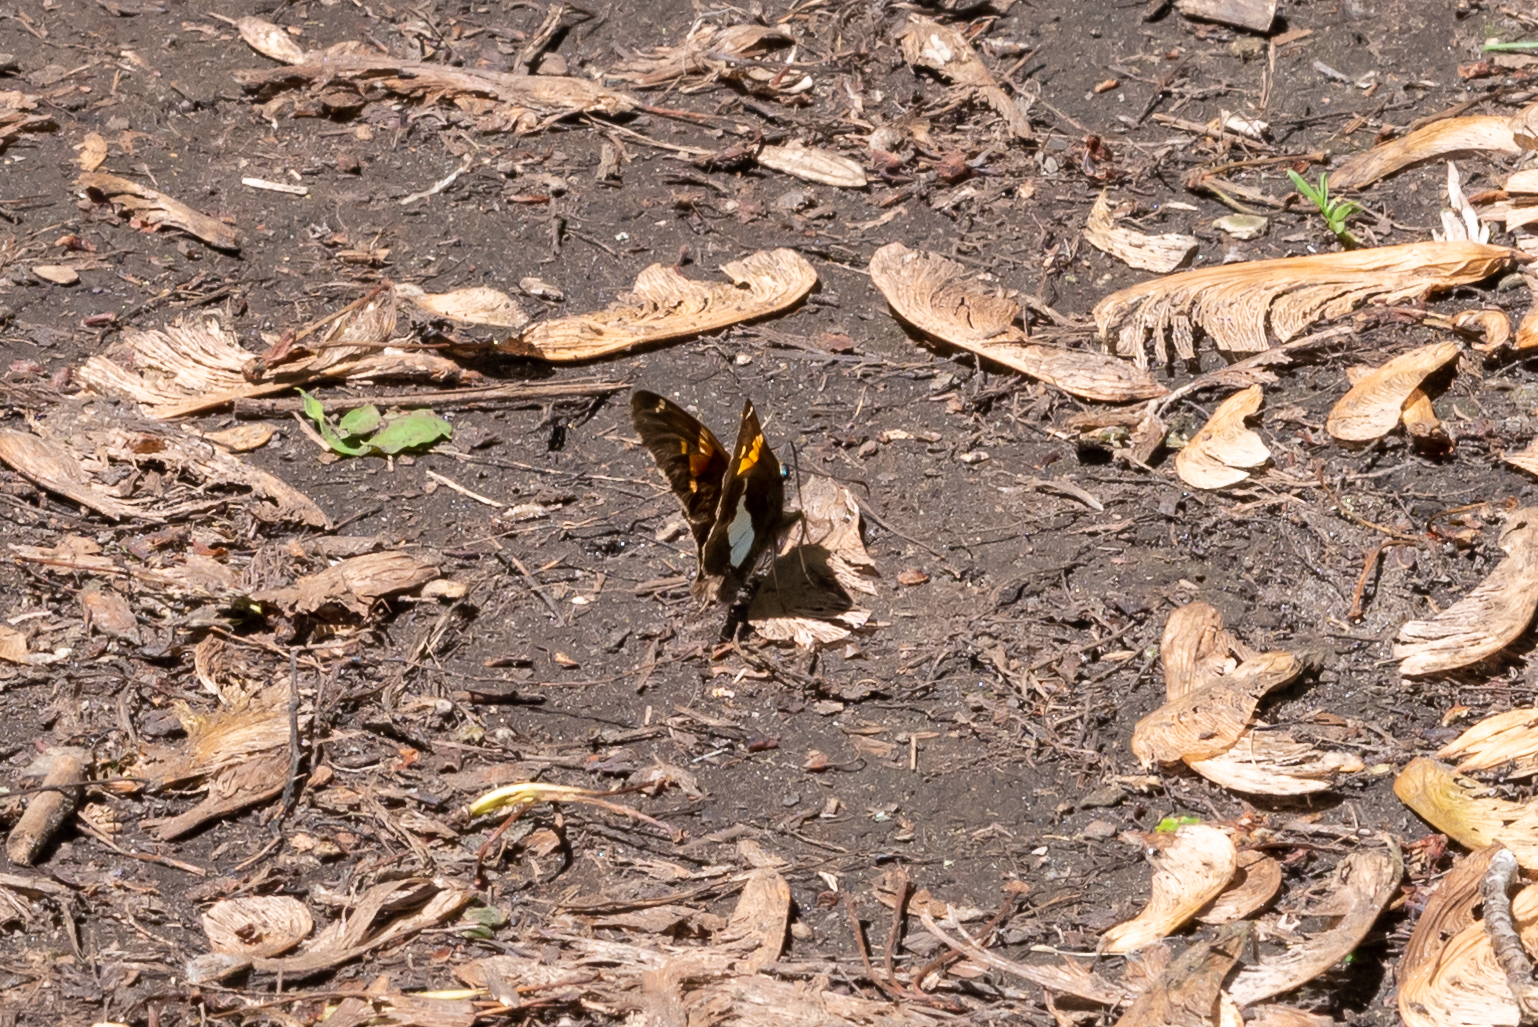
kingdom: Animalia
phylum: Arthropoda
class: Insecta
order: Lepidoptera
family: Hesperiidae
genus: Epargyreus
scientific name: Epargyreus clarus
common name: Silver-spotted skipper
